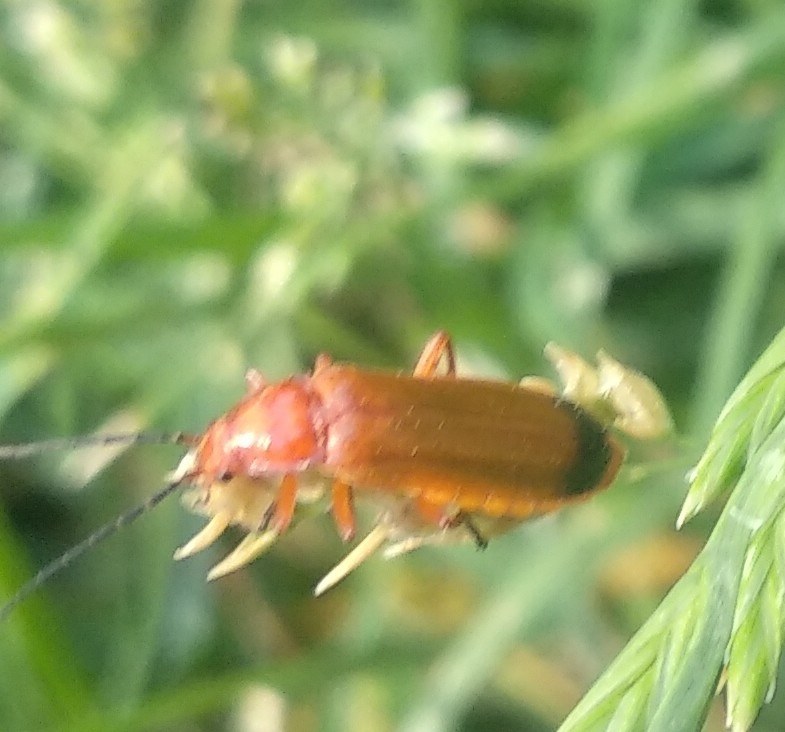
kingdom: Animalia
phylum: Arthropoda
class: Insecta
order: Coleoptera
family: Cantharidae
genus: Rhagonycha
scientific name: Rhagonycha fulva
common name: Common red soldier beetle
